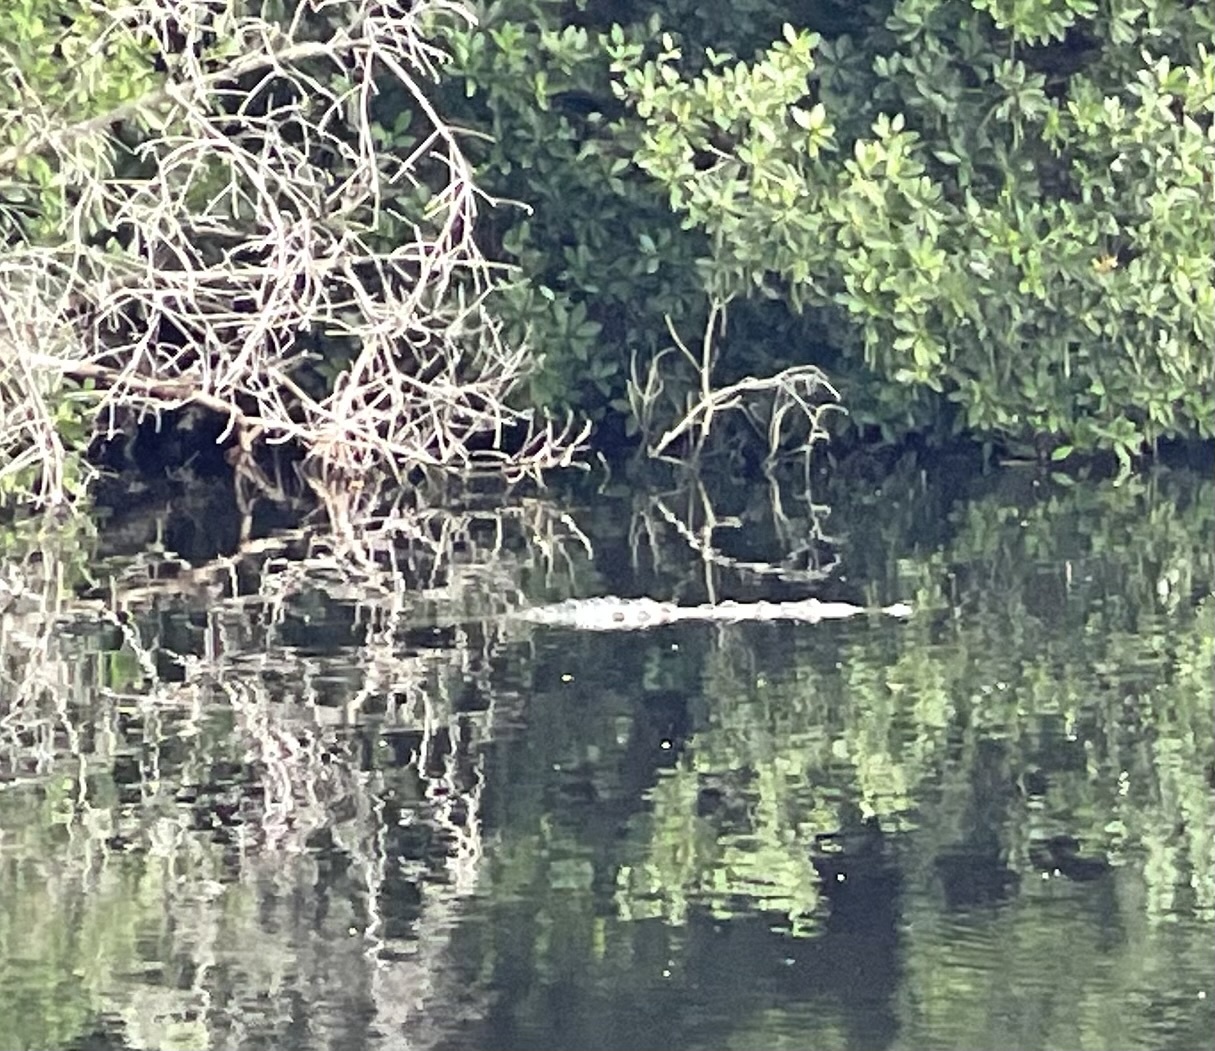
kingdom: Animalia
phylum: Chordata
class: Crocodylia
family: Crocodylidae
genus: Crocodylus
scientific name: Crocodylus acutus
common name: American crocodile
